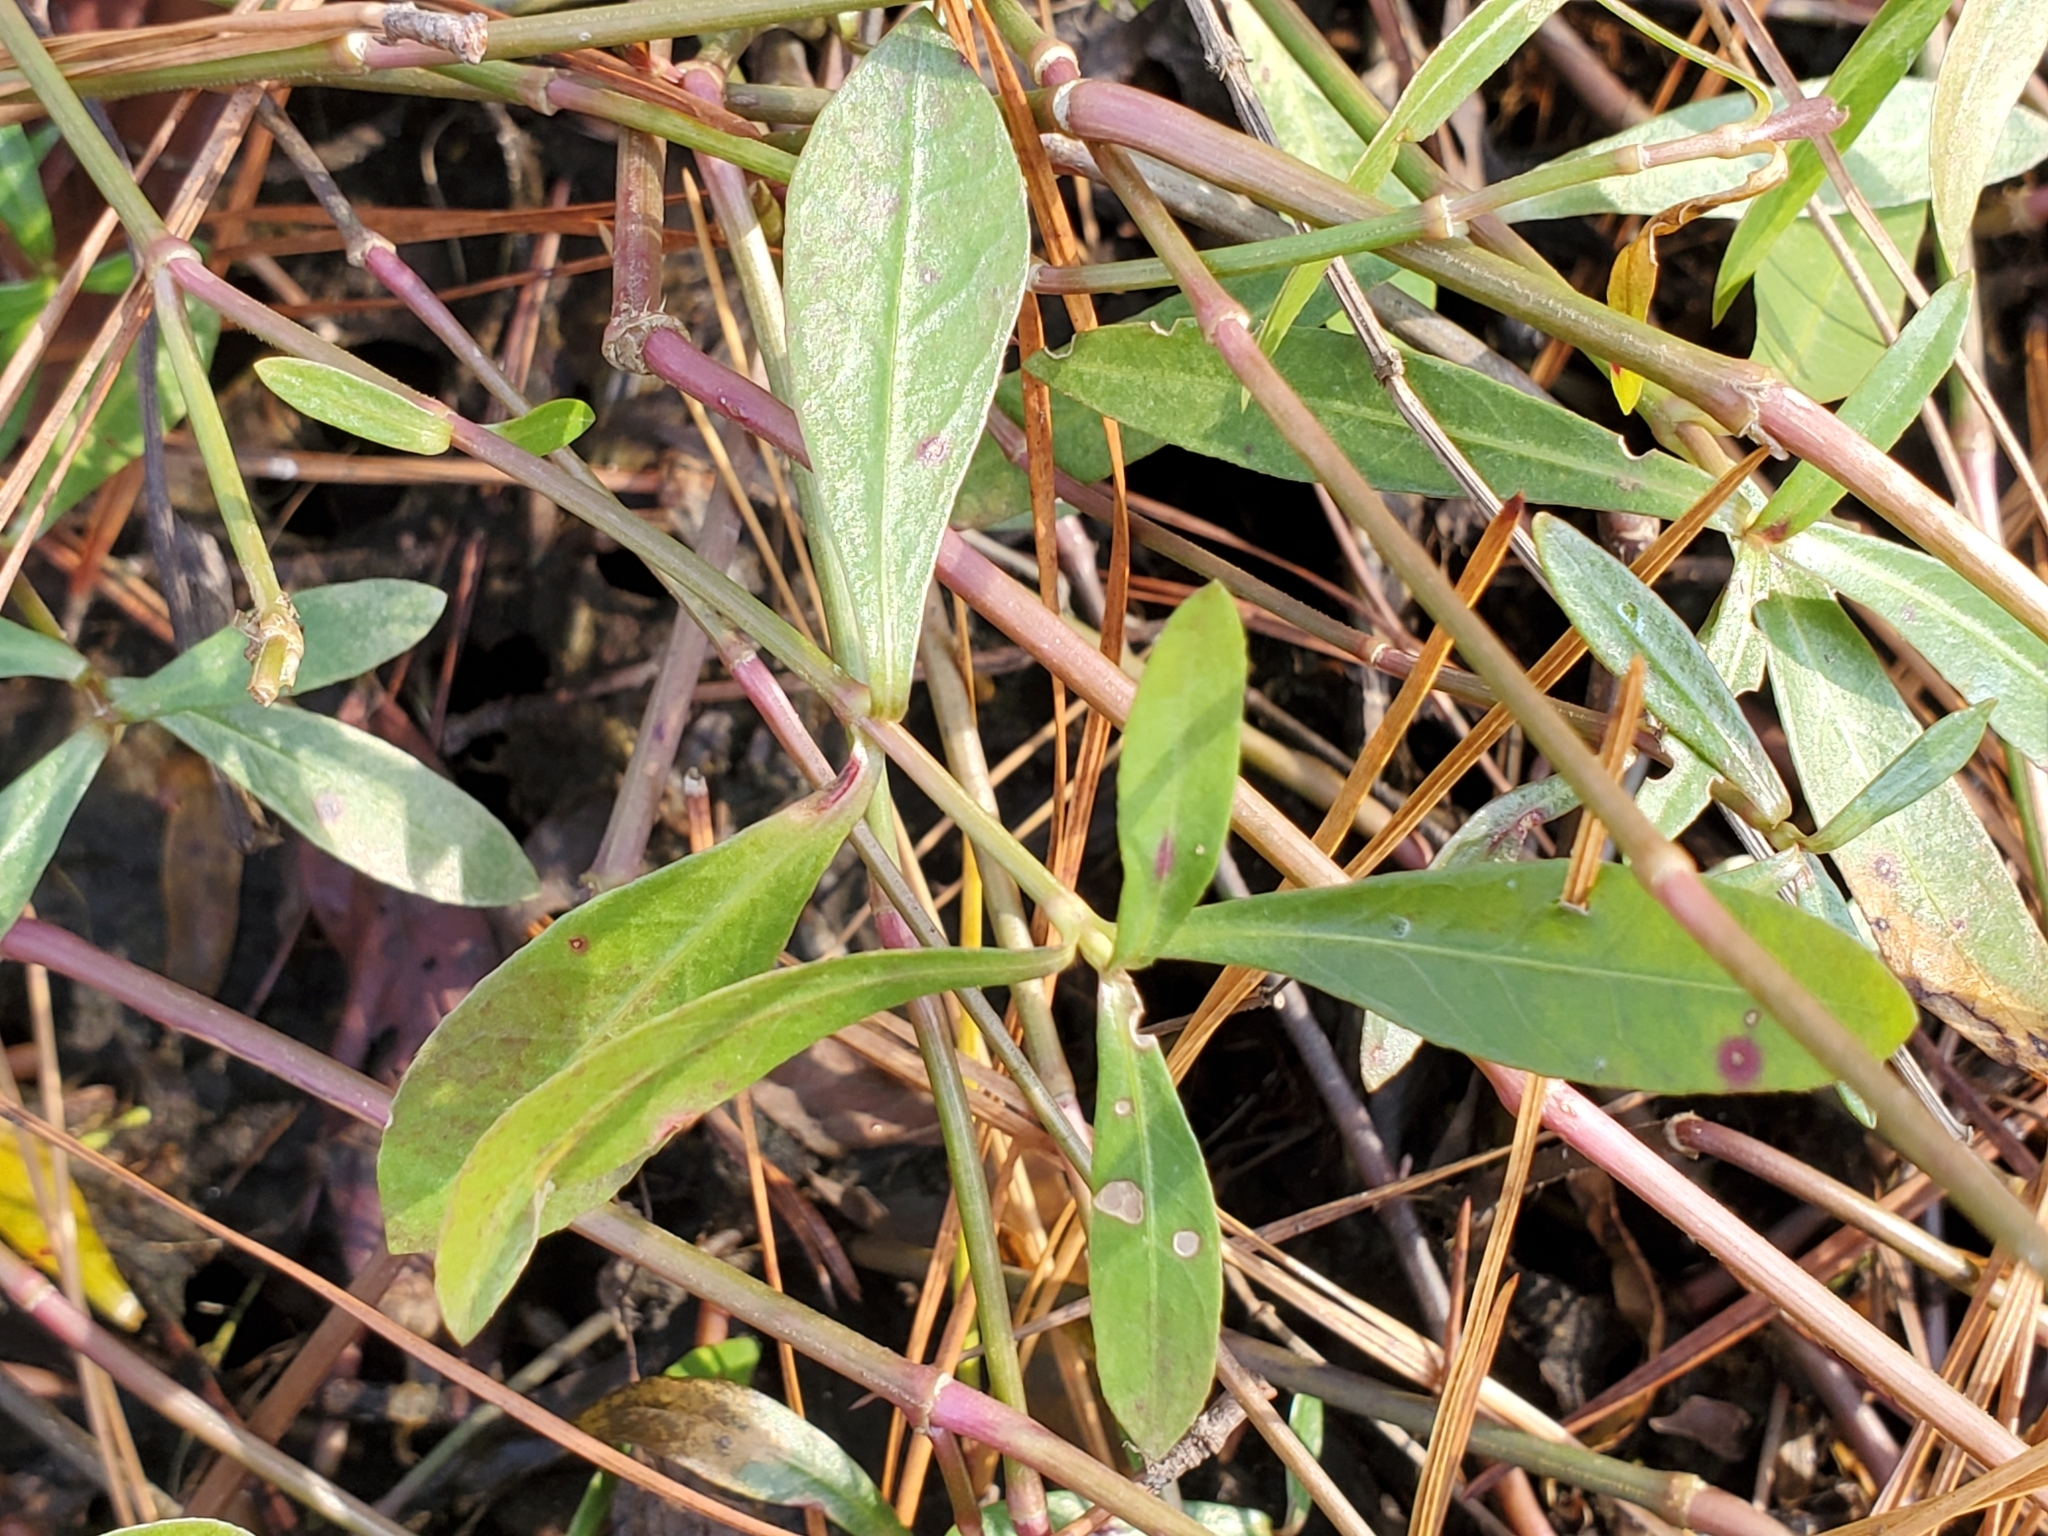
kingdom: Plantae
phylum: Tracheophyta
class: Magnoliopsida
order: Caryophyllales
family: Amaranthaceae
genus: Alternanthera
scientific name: Alternanthera philoxeroides
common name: Alligatorweed
